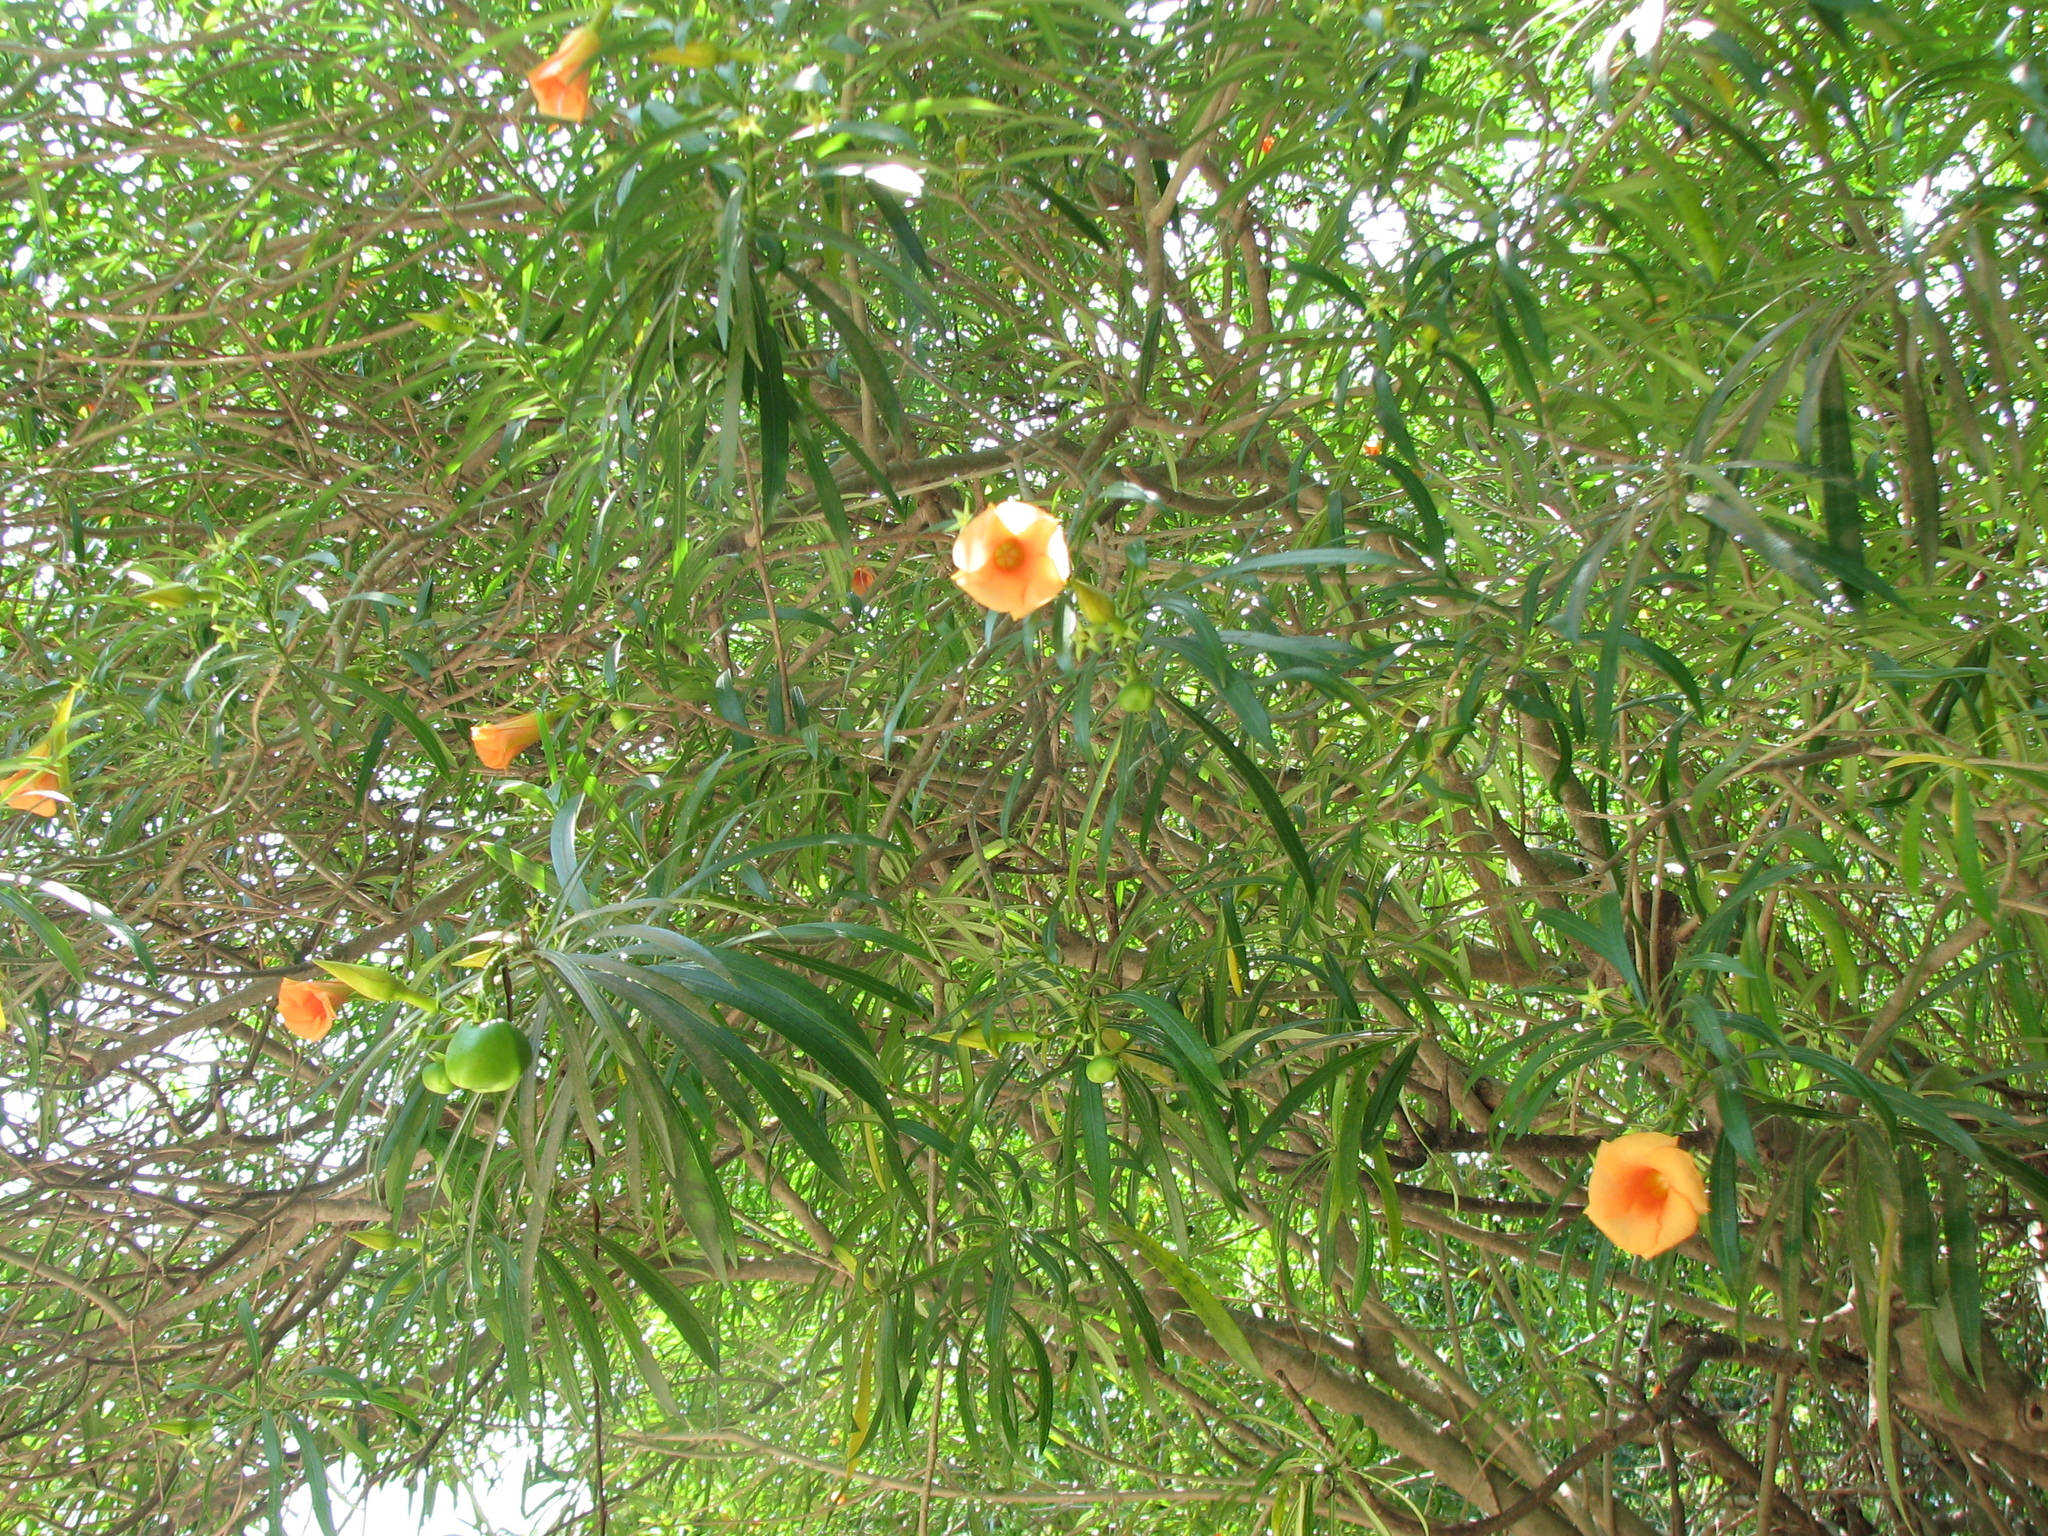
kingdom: Plantae
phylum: Tracheophyta
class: Magnoliopsida
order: Gentianales
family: Apocynaceae
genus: Cascabela
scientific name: Cascabela thevetia
